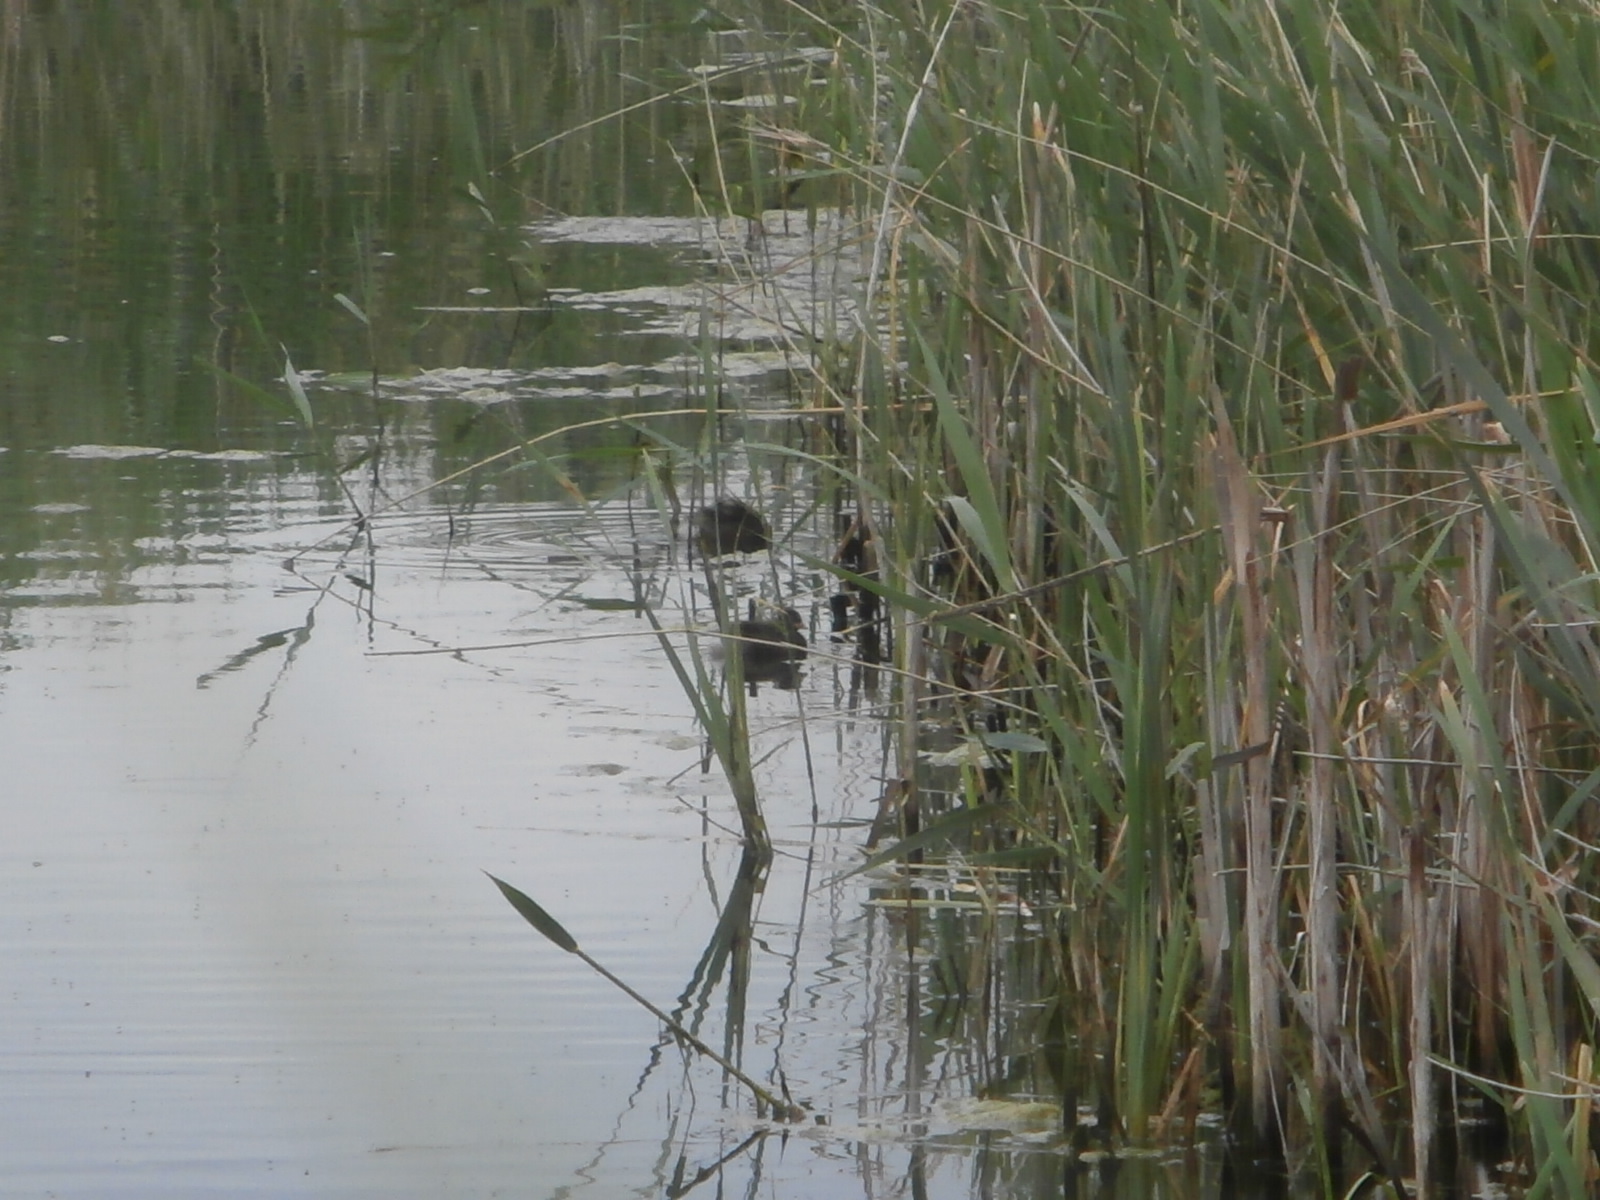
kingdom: Animalia
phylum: Chordata
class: Aves
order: Podicipediformes
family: Podicipedidae
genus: Tachybaptus
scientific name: Tachybaptus ruficollis
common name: Little grebe
